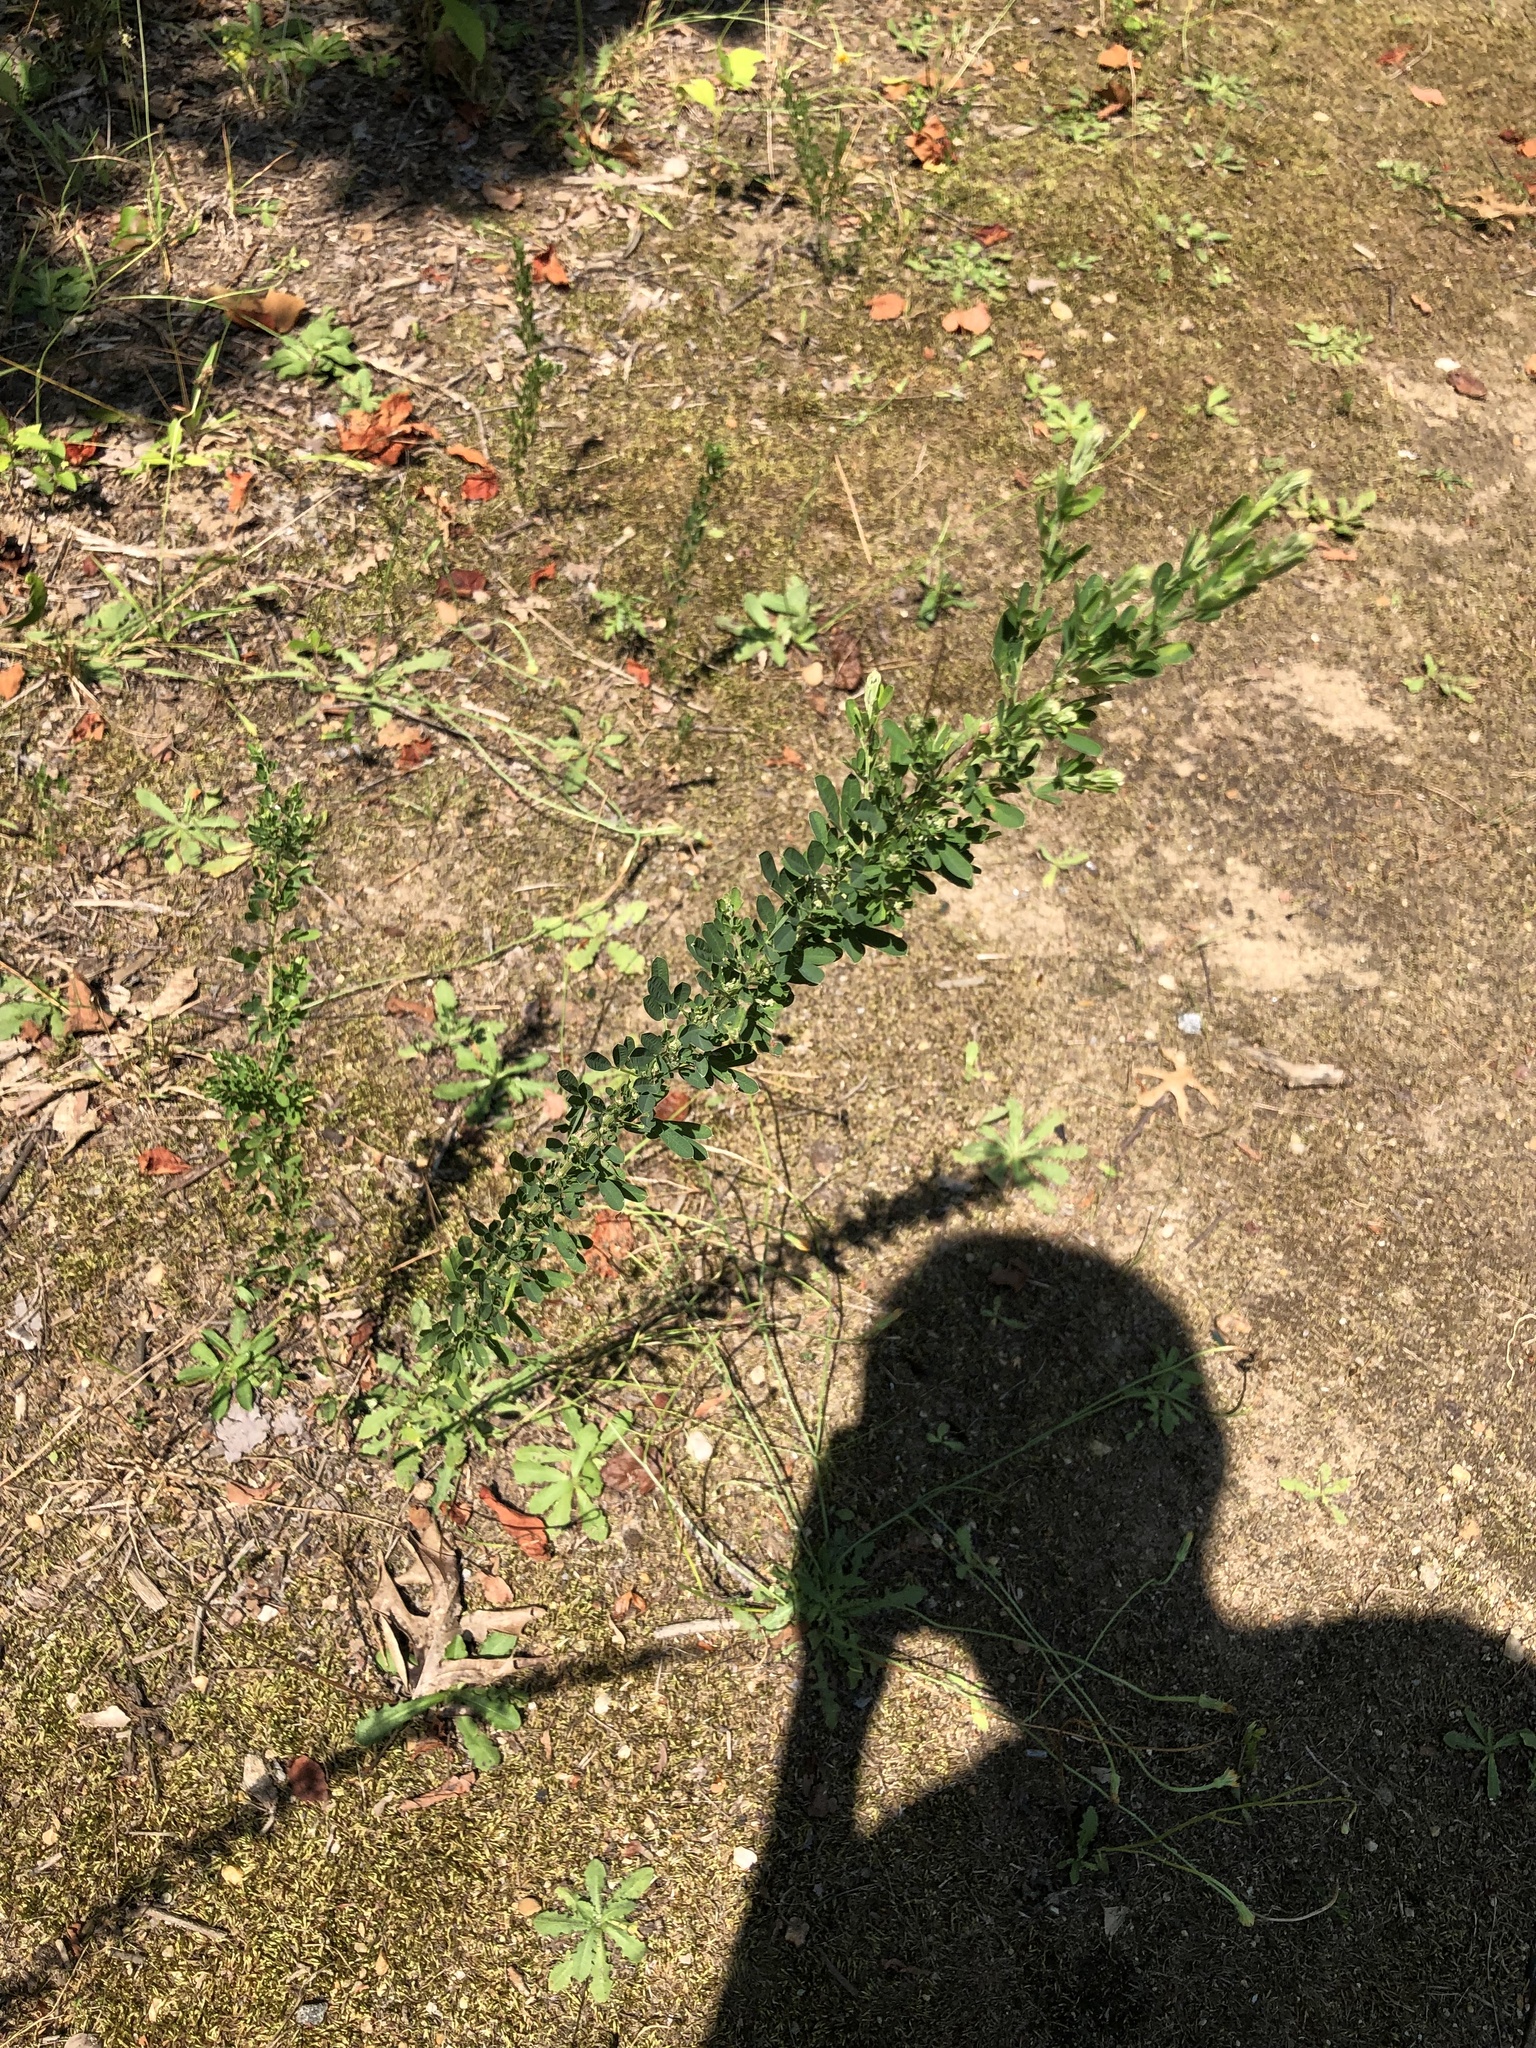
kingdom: Plantae
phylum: Tracheophyta
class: Magnoliopsida
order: Fabales
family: Fabaceae
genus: Lespedeza
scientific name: Lespedeza cuneata
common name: Chinese bush-clover
